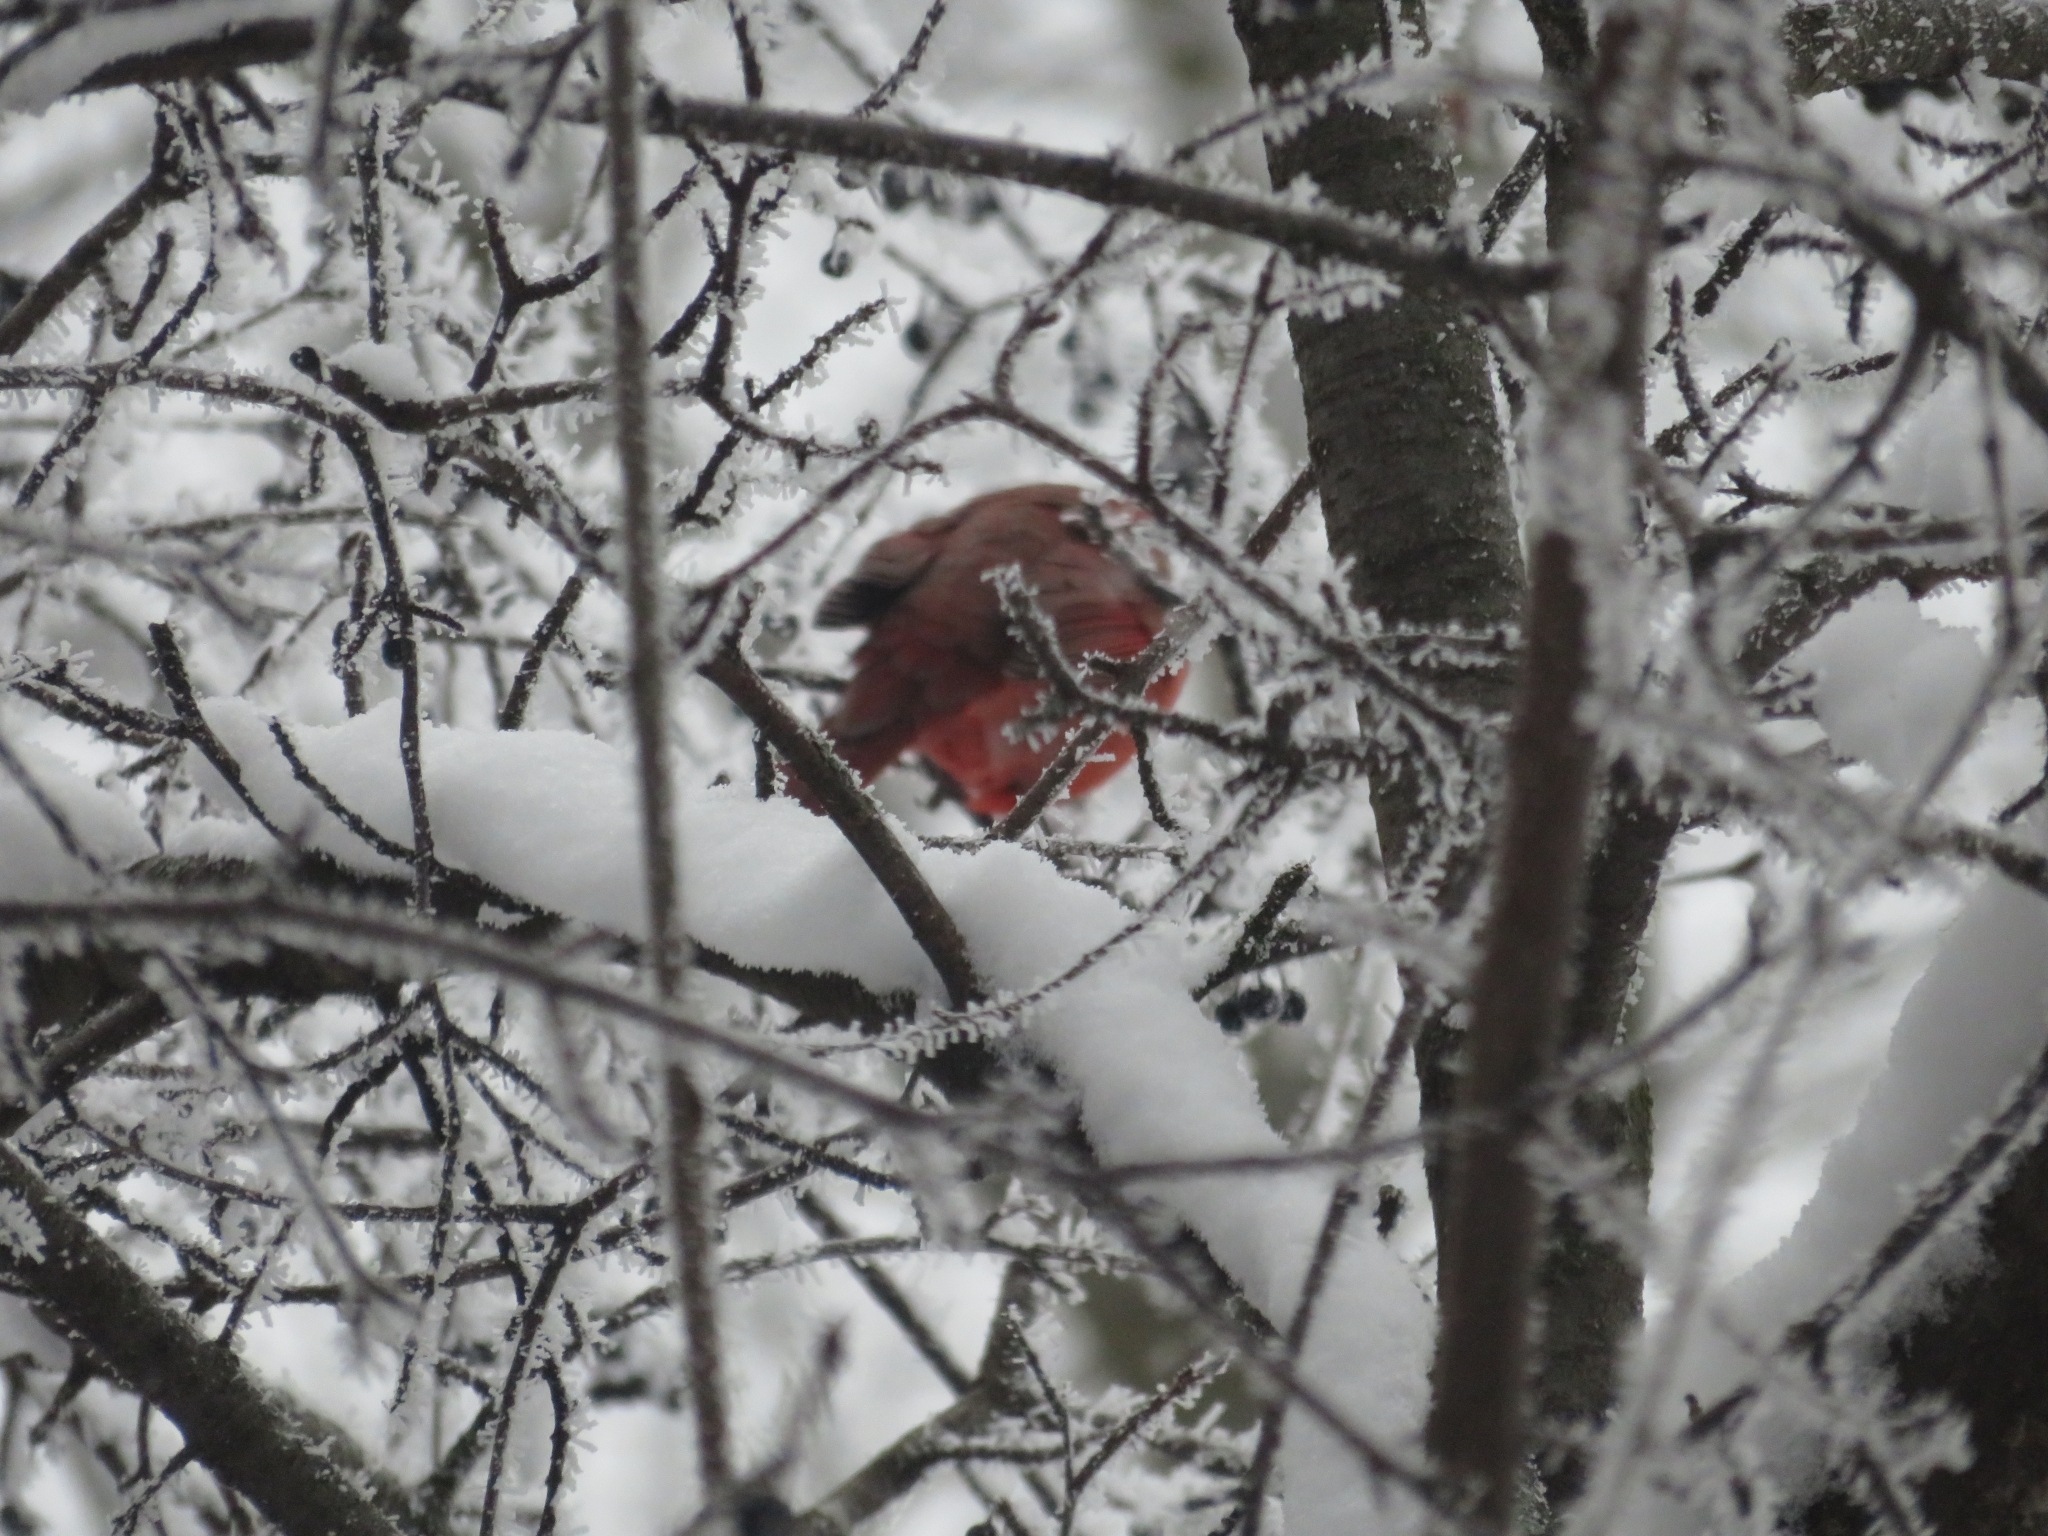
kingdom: Animalia
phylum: Chordata
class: Aves
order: Passeriformes
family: Cardinalidae
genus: Cardinalis
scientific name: Cardinalis cardinalis
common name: Northern cardinal
